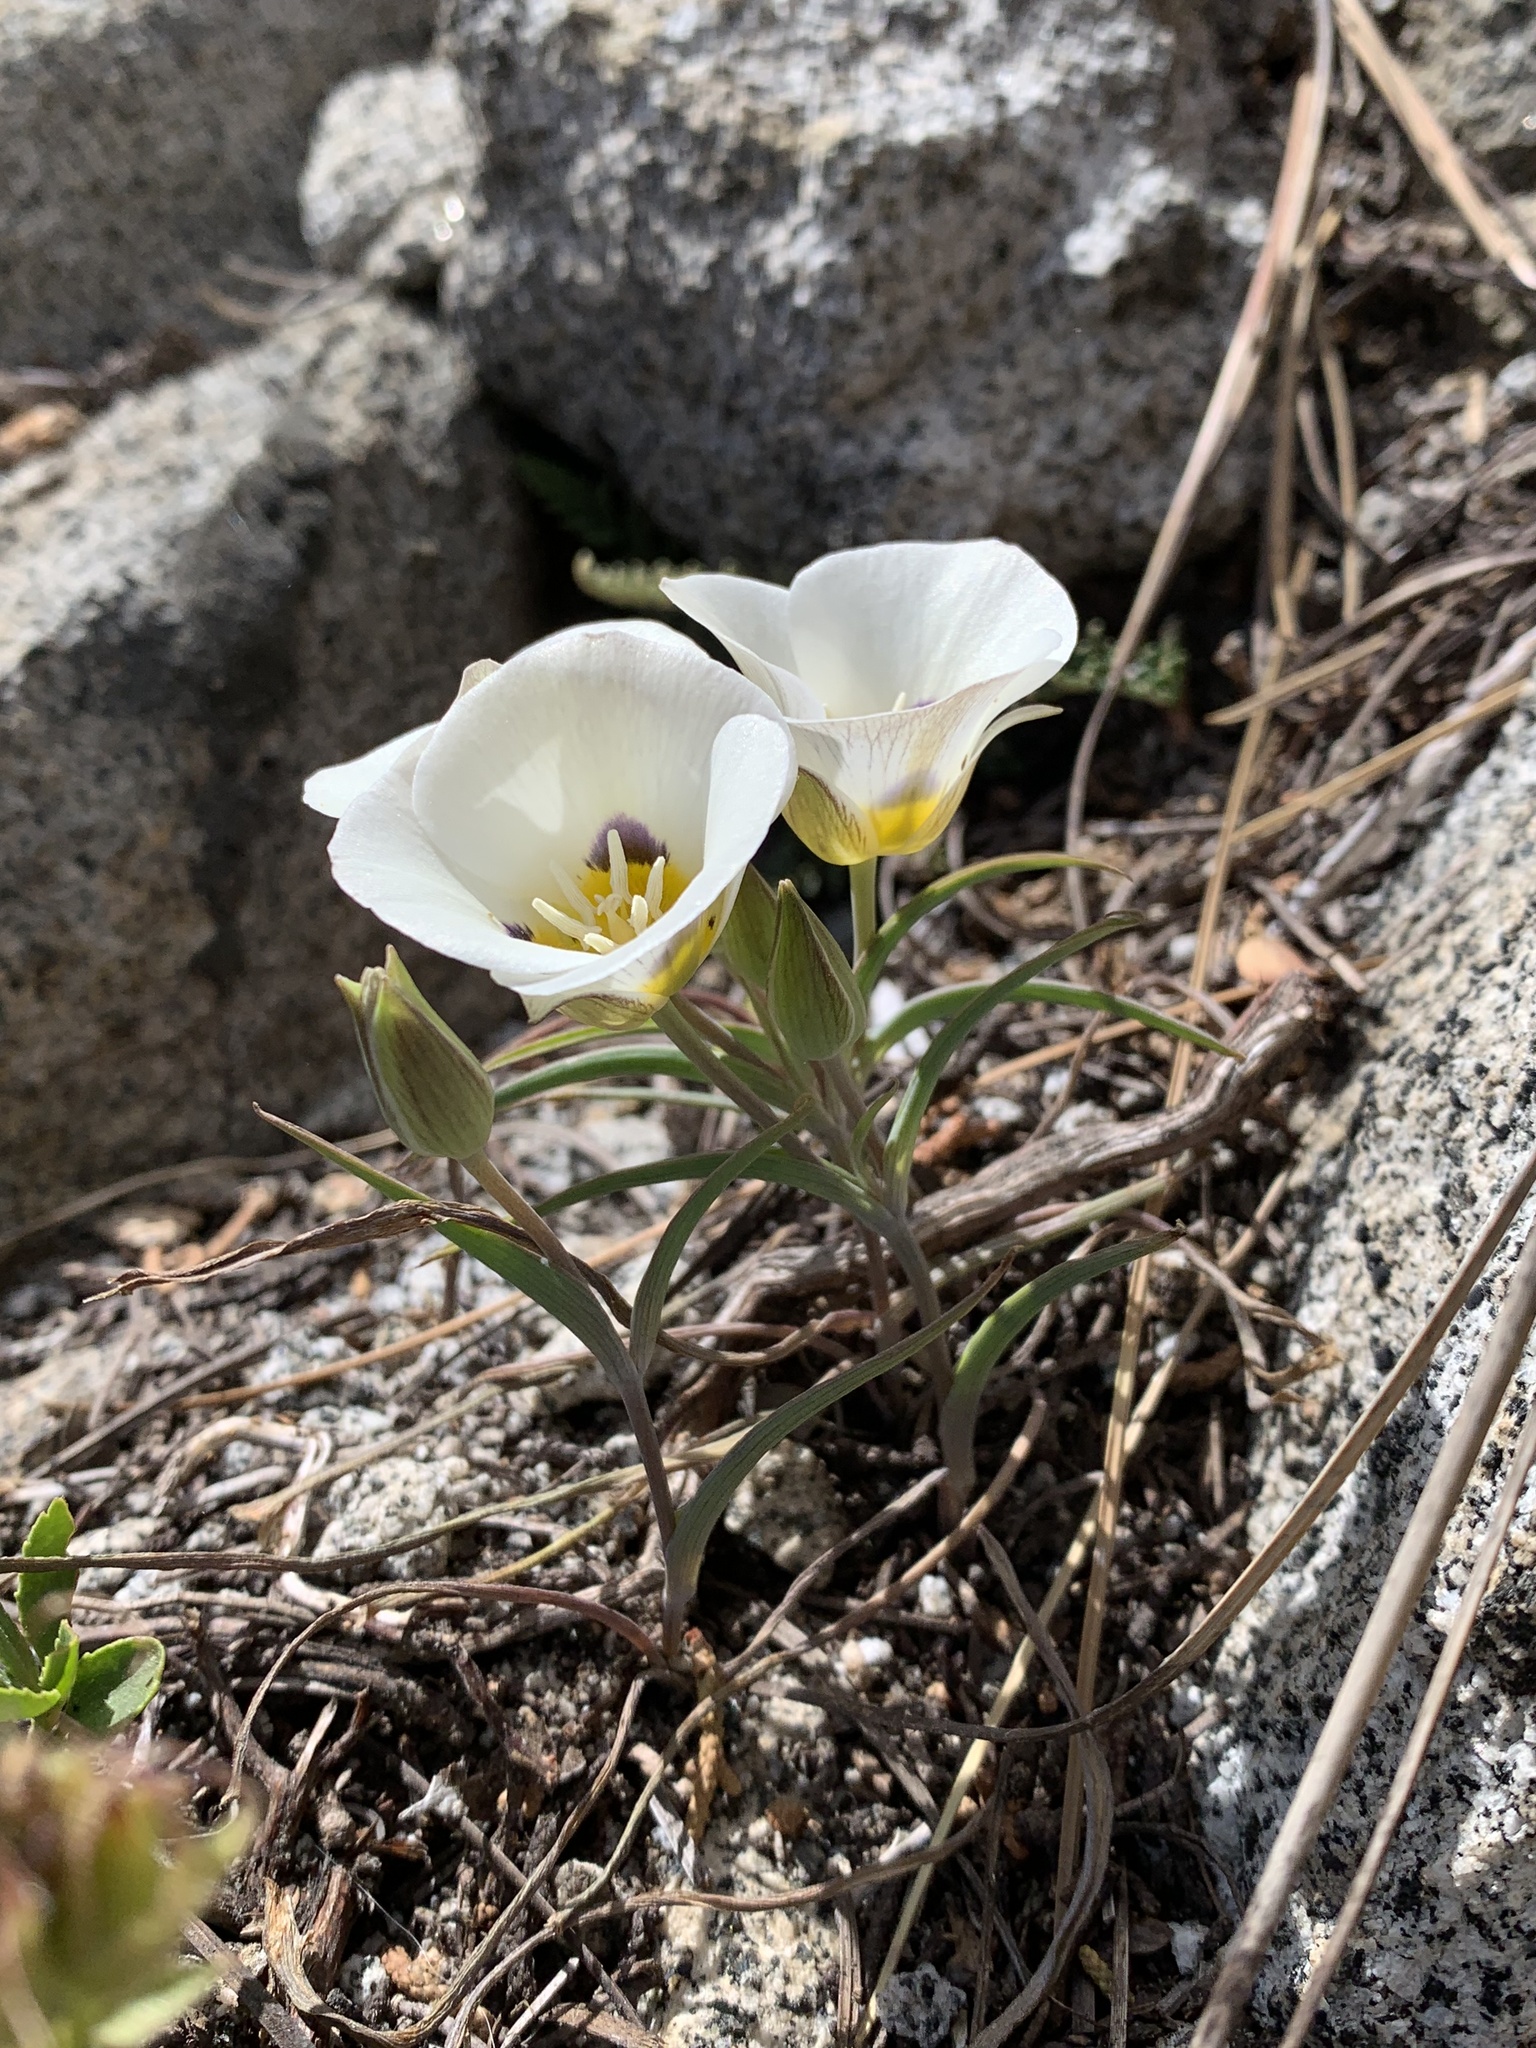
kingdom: Plantae
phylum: Tracheophyta
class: Liliopsida
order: Liliales
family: Liliaceae
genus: Calochortus
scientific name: Calochortus leichtlinii
